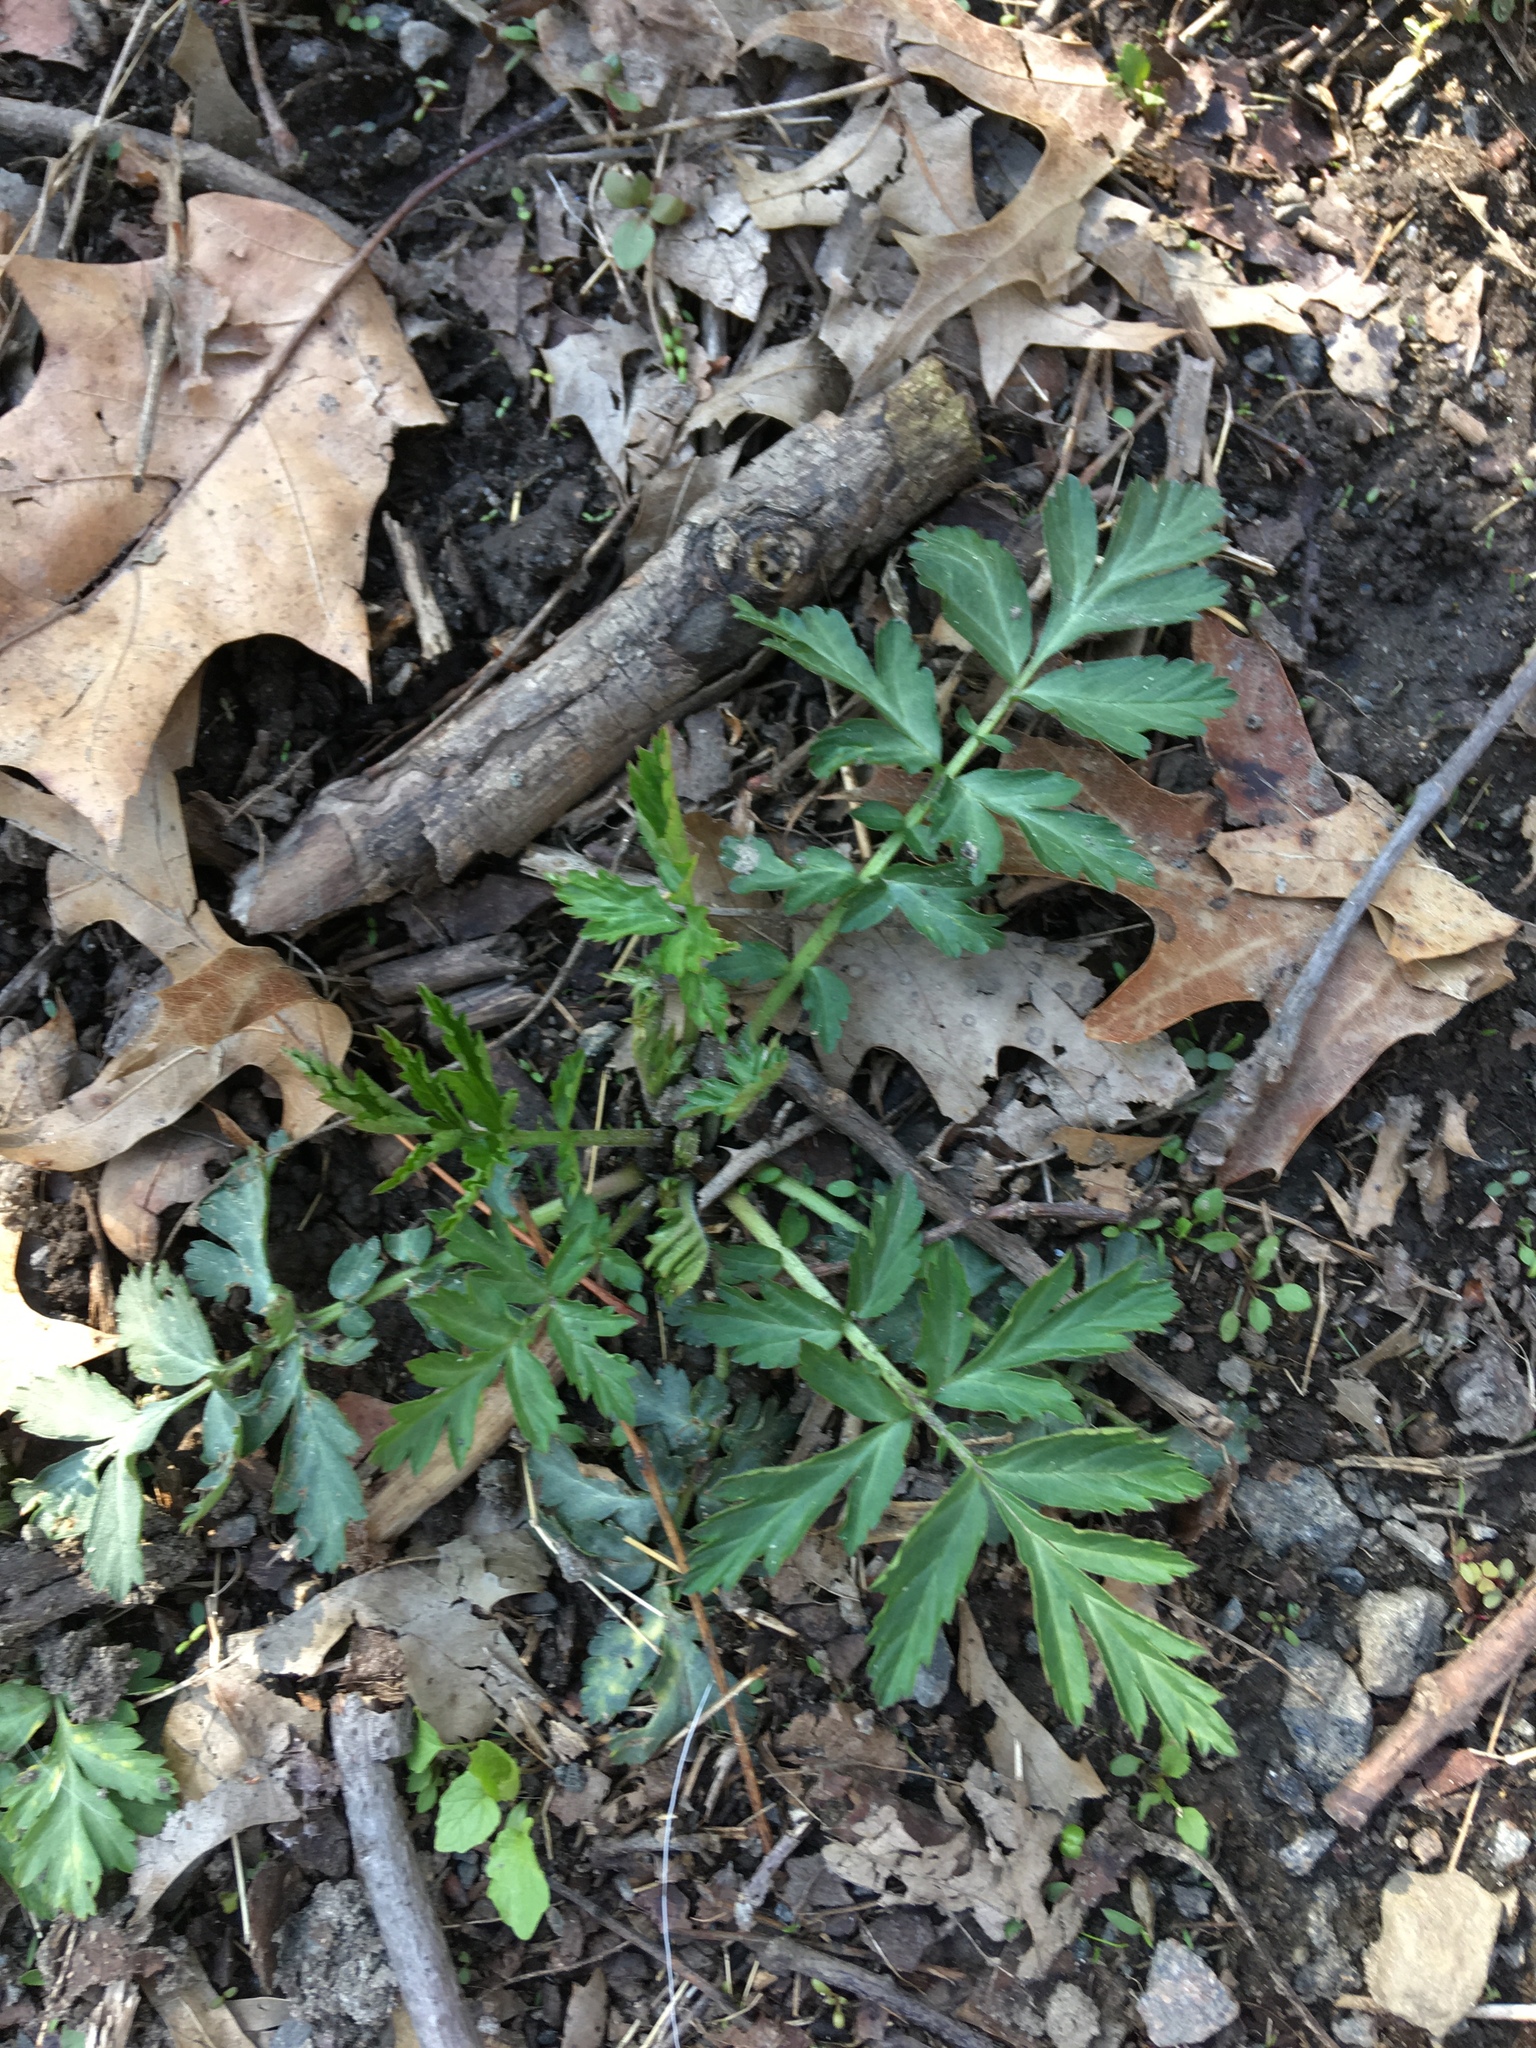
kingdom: Plantae
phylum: Tracheophyta
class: Magnoliopsida
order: Rosales
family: Rosaceae
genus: Geum
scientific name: Geum canadense
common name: White avens
